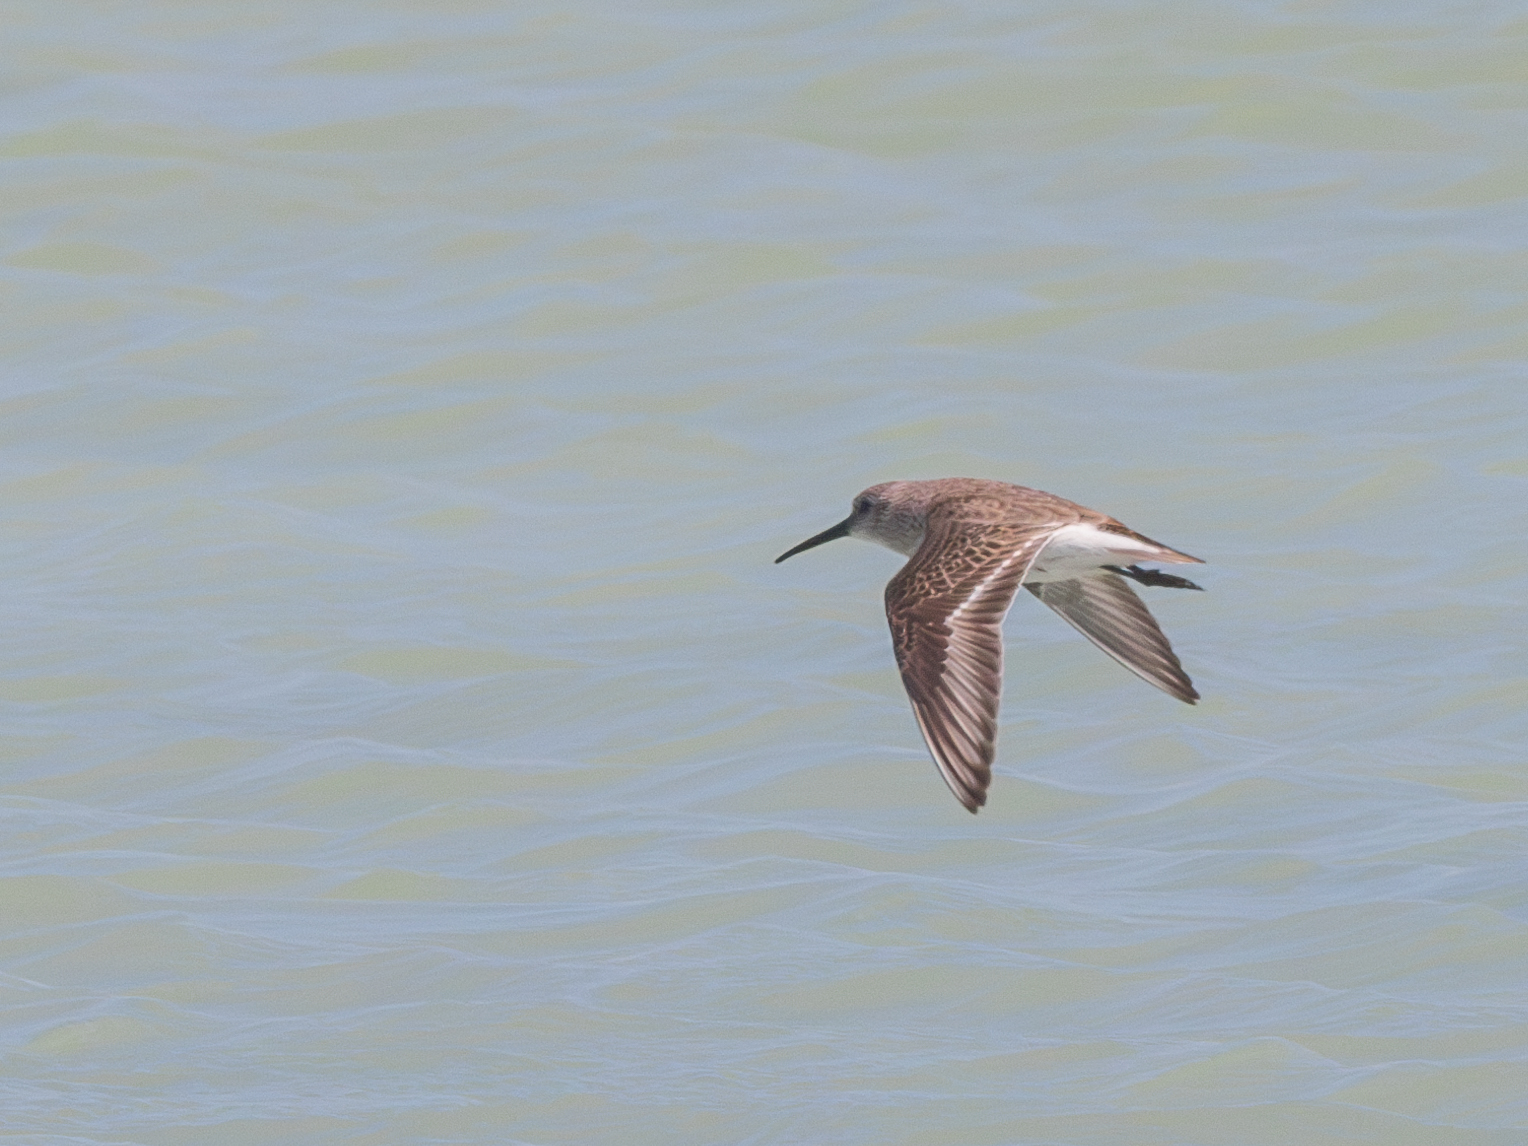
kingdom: Animalia
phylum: Chordata
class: Aves
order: Charadriiformes
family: Scolopacidae
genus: Calidris
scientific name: Calidris alpina
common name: Dunlin
